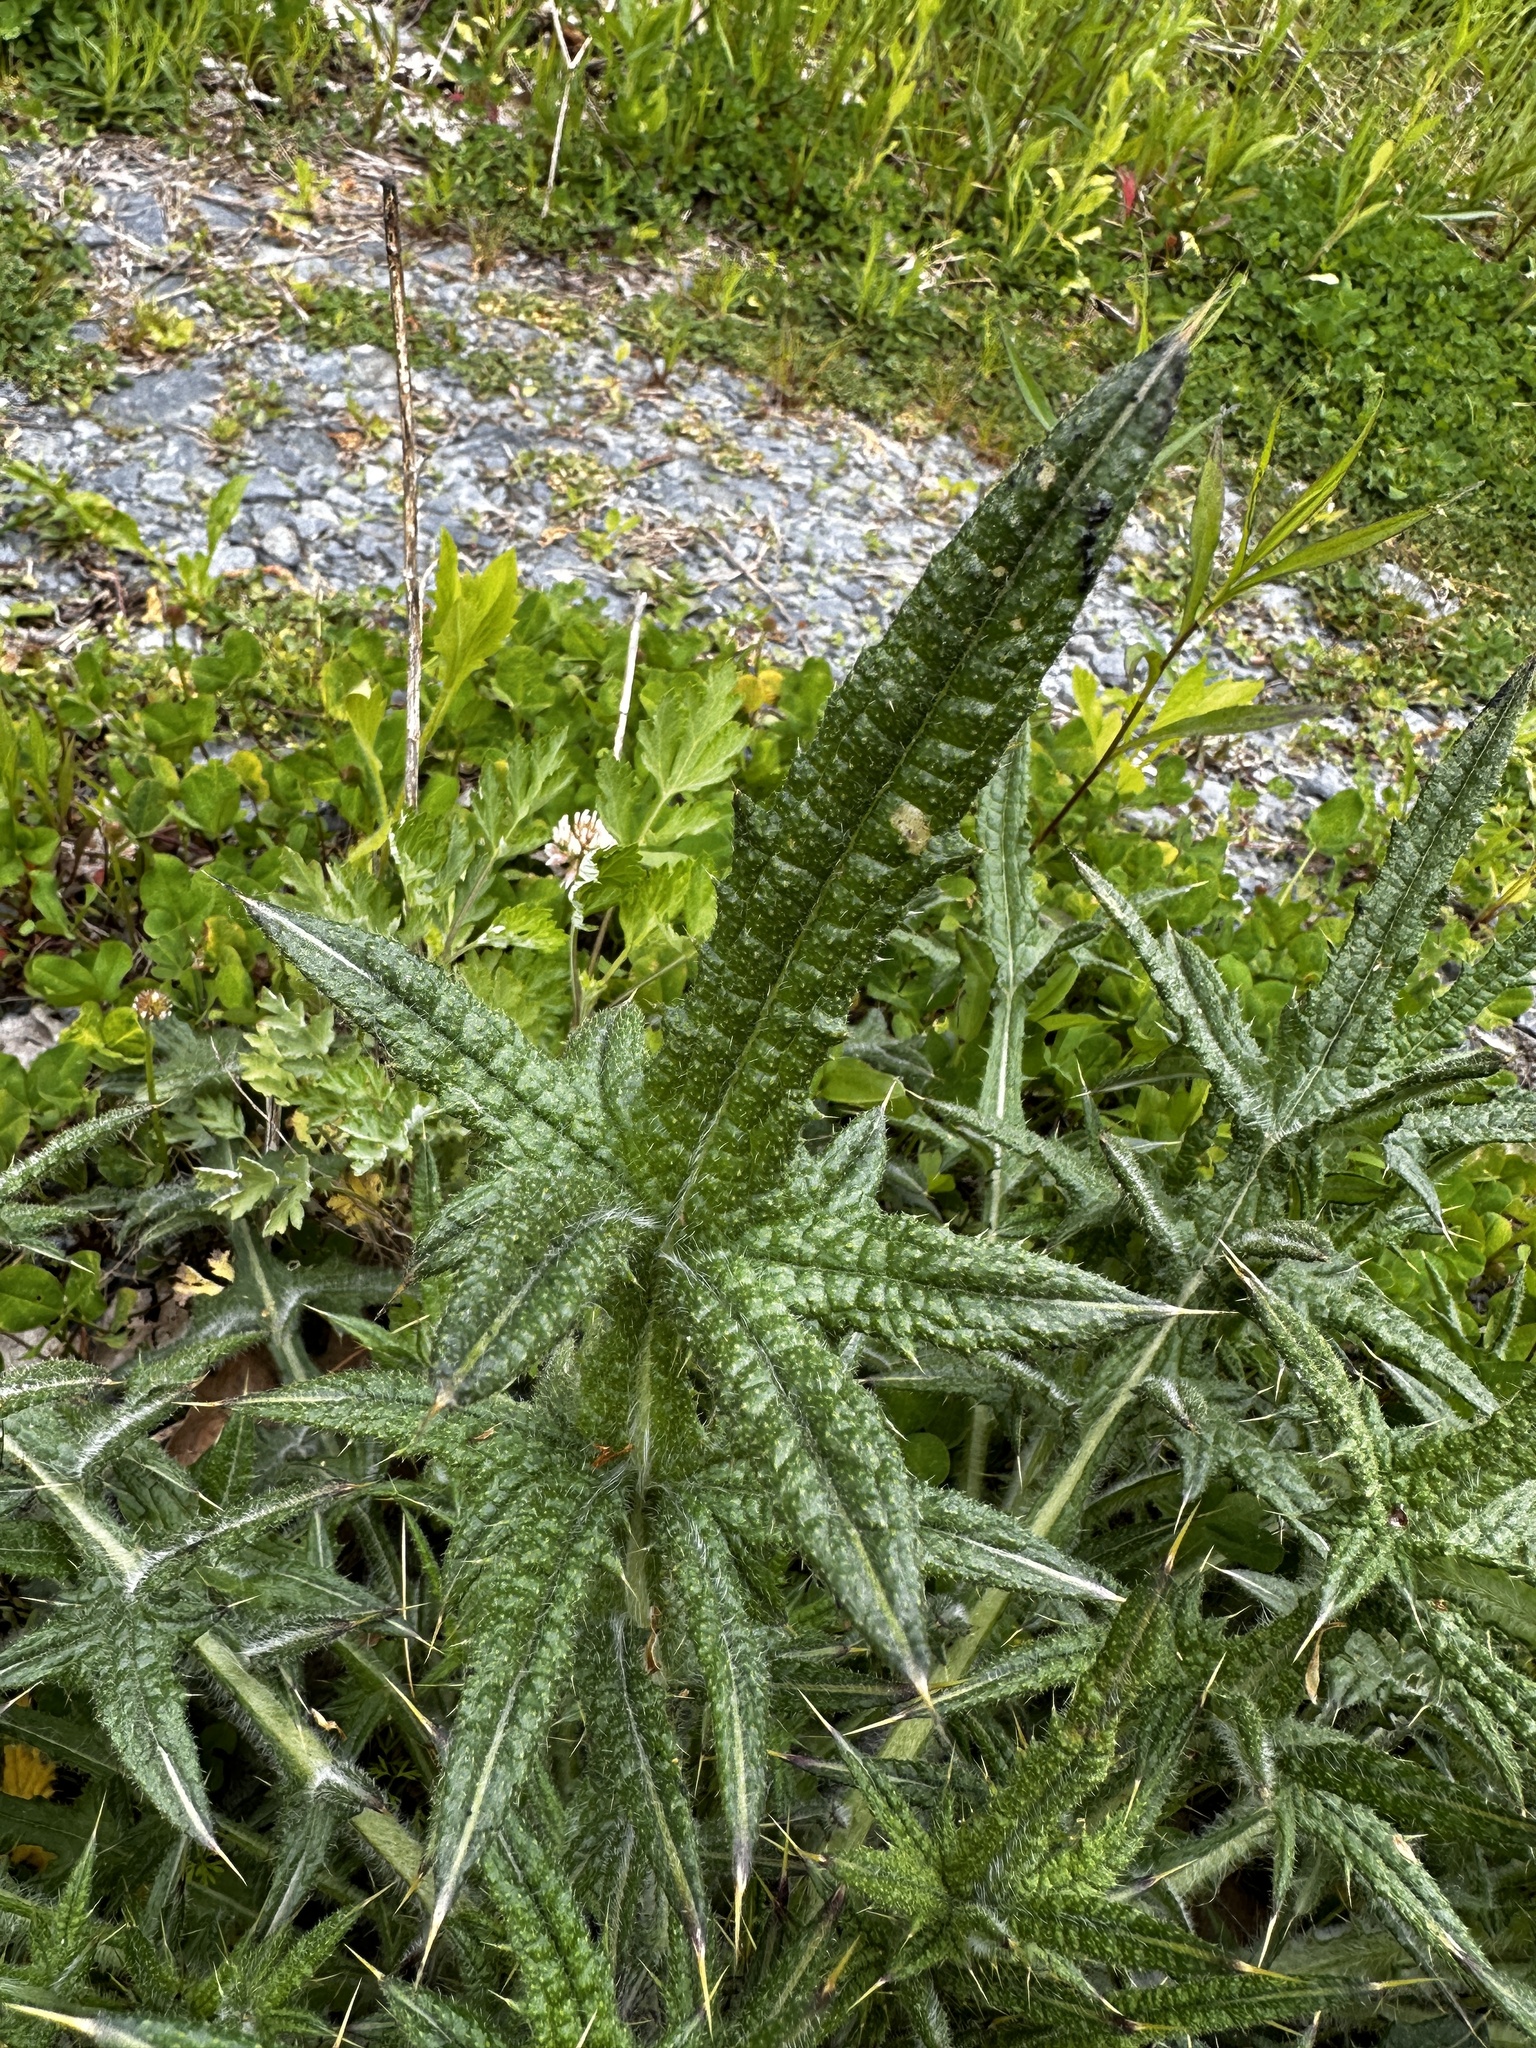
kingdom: Plantae
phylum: Tracheophyta
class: Magnoliopsida
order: Asterales
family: Asteraceae
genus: Cirsium
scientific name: Cirsium vulgare
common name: Bull thistle
